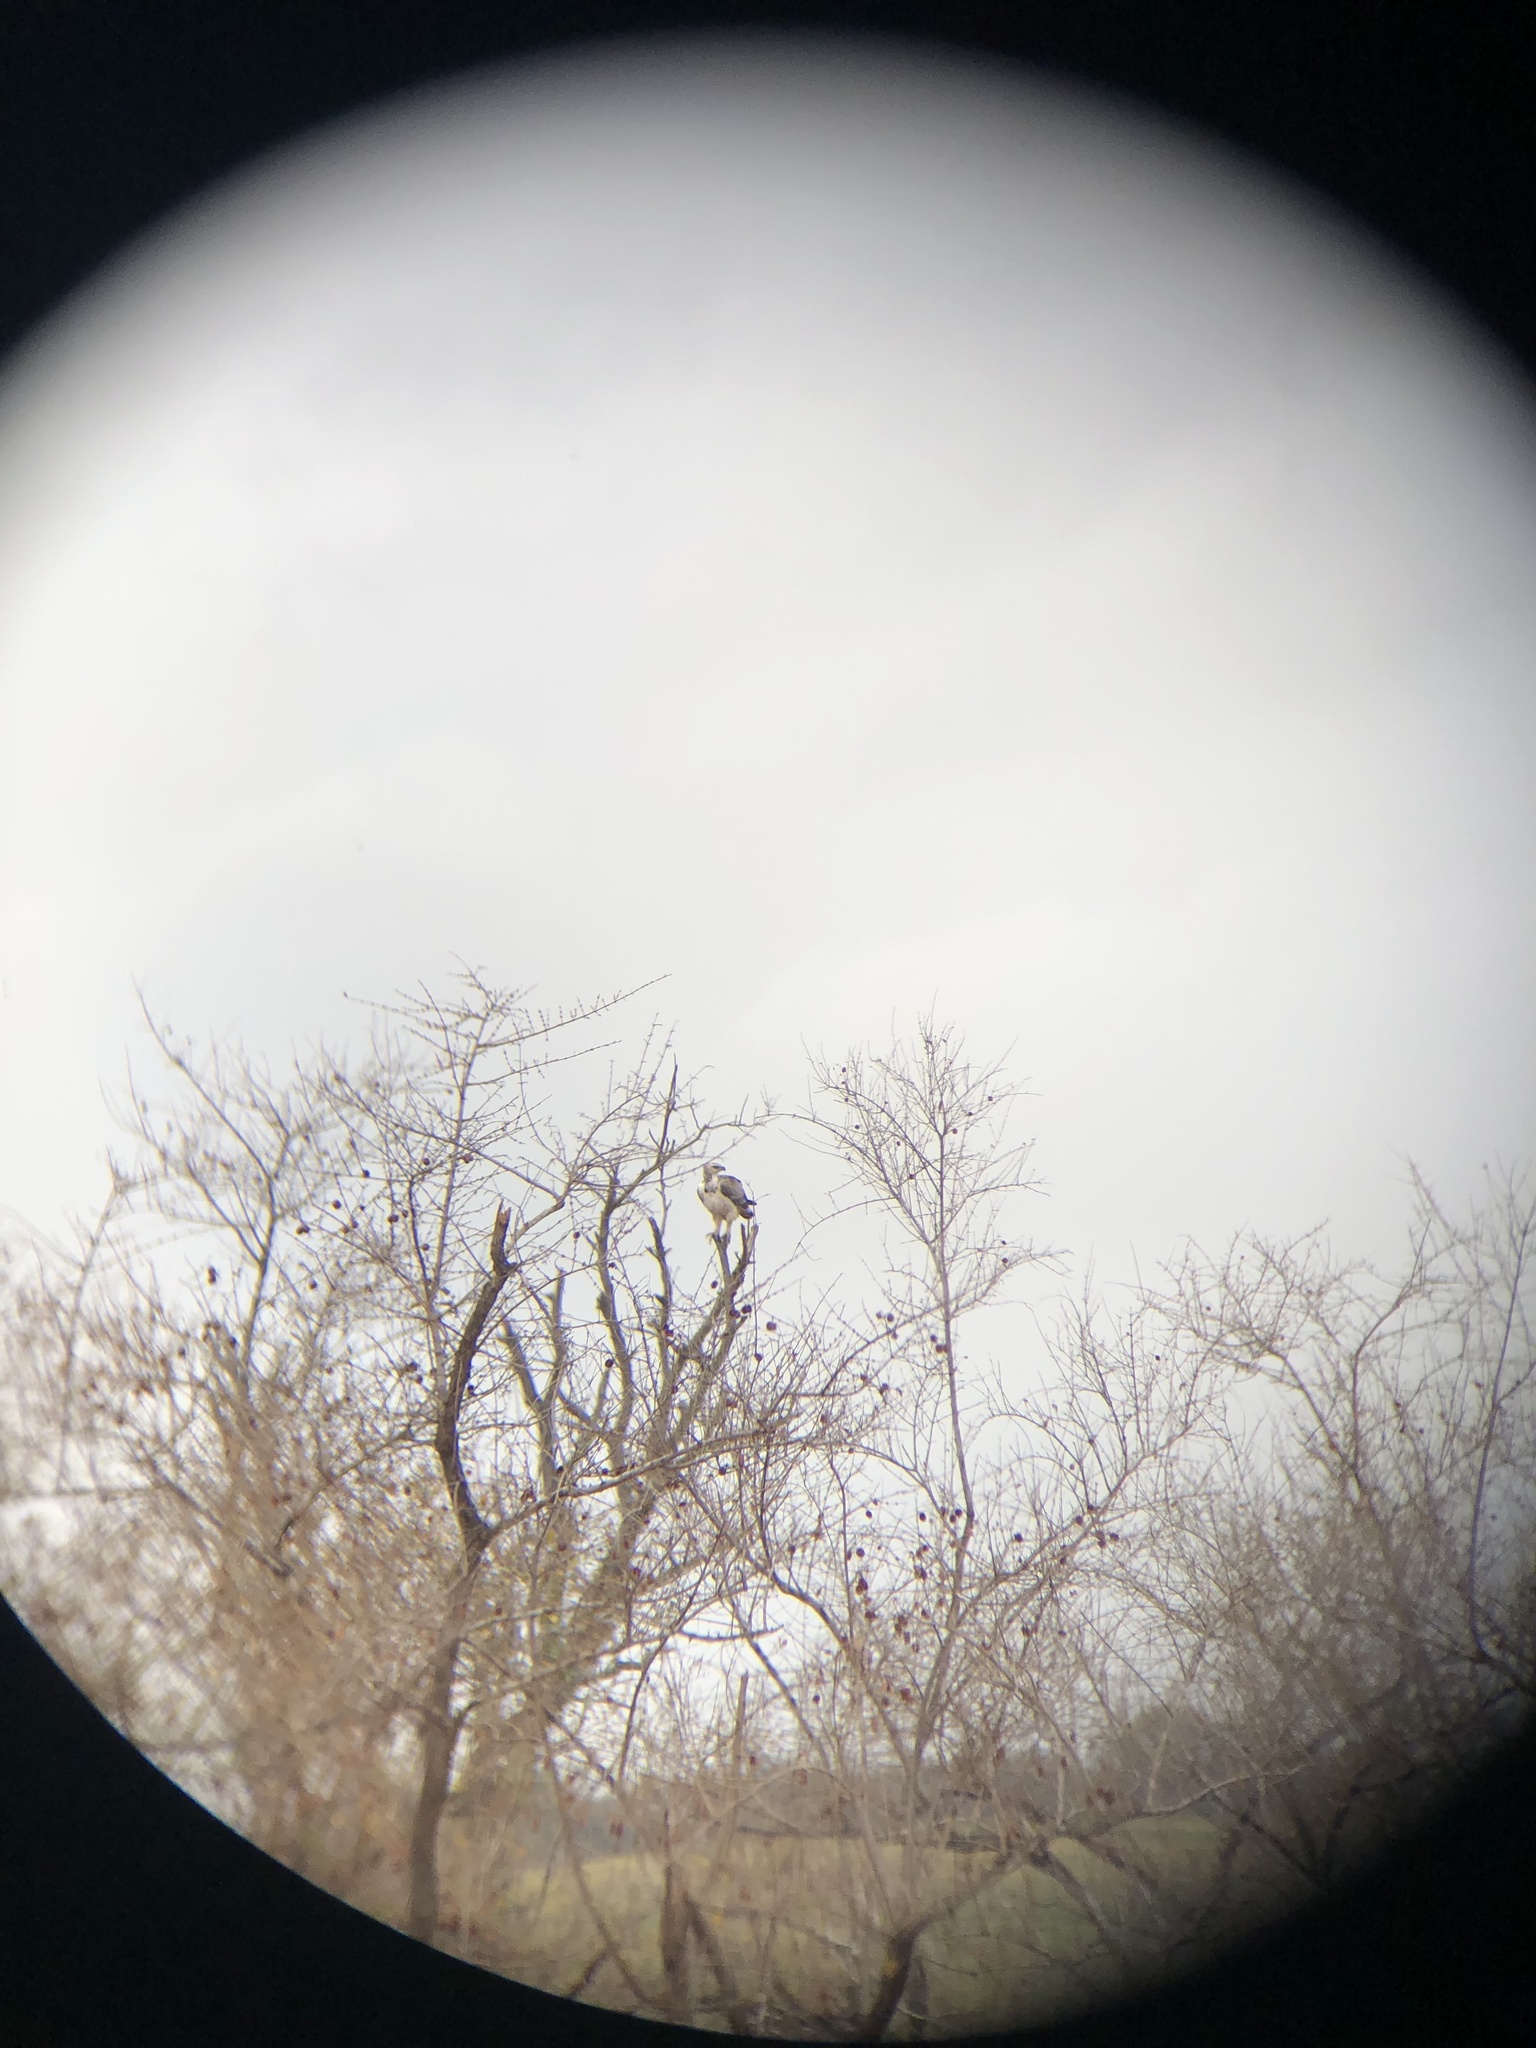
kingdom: Animalia
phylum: Chordata
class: Aves
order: Accipitriformes
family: Accipitridae
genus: Polemaetus
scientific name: Polemaetus bellicosus
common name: Martial eagle
